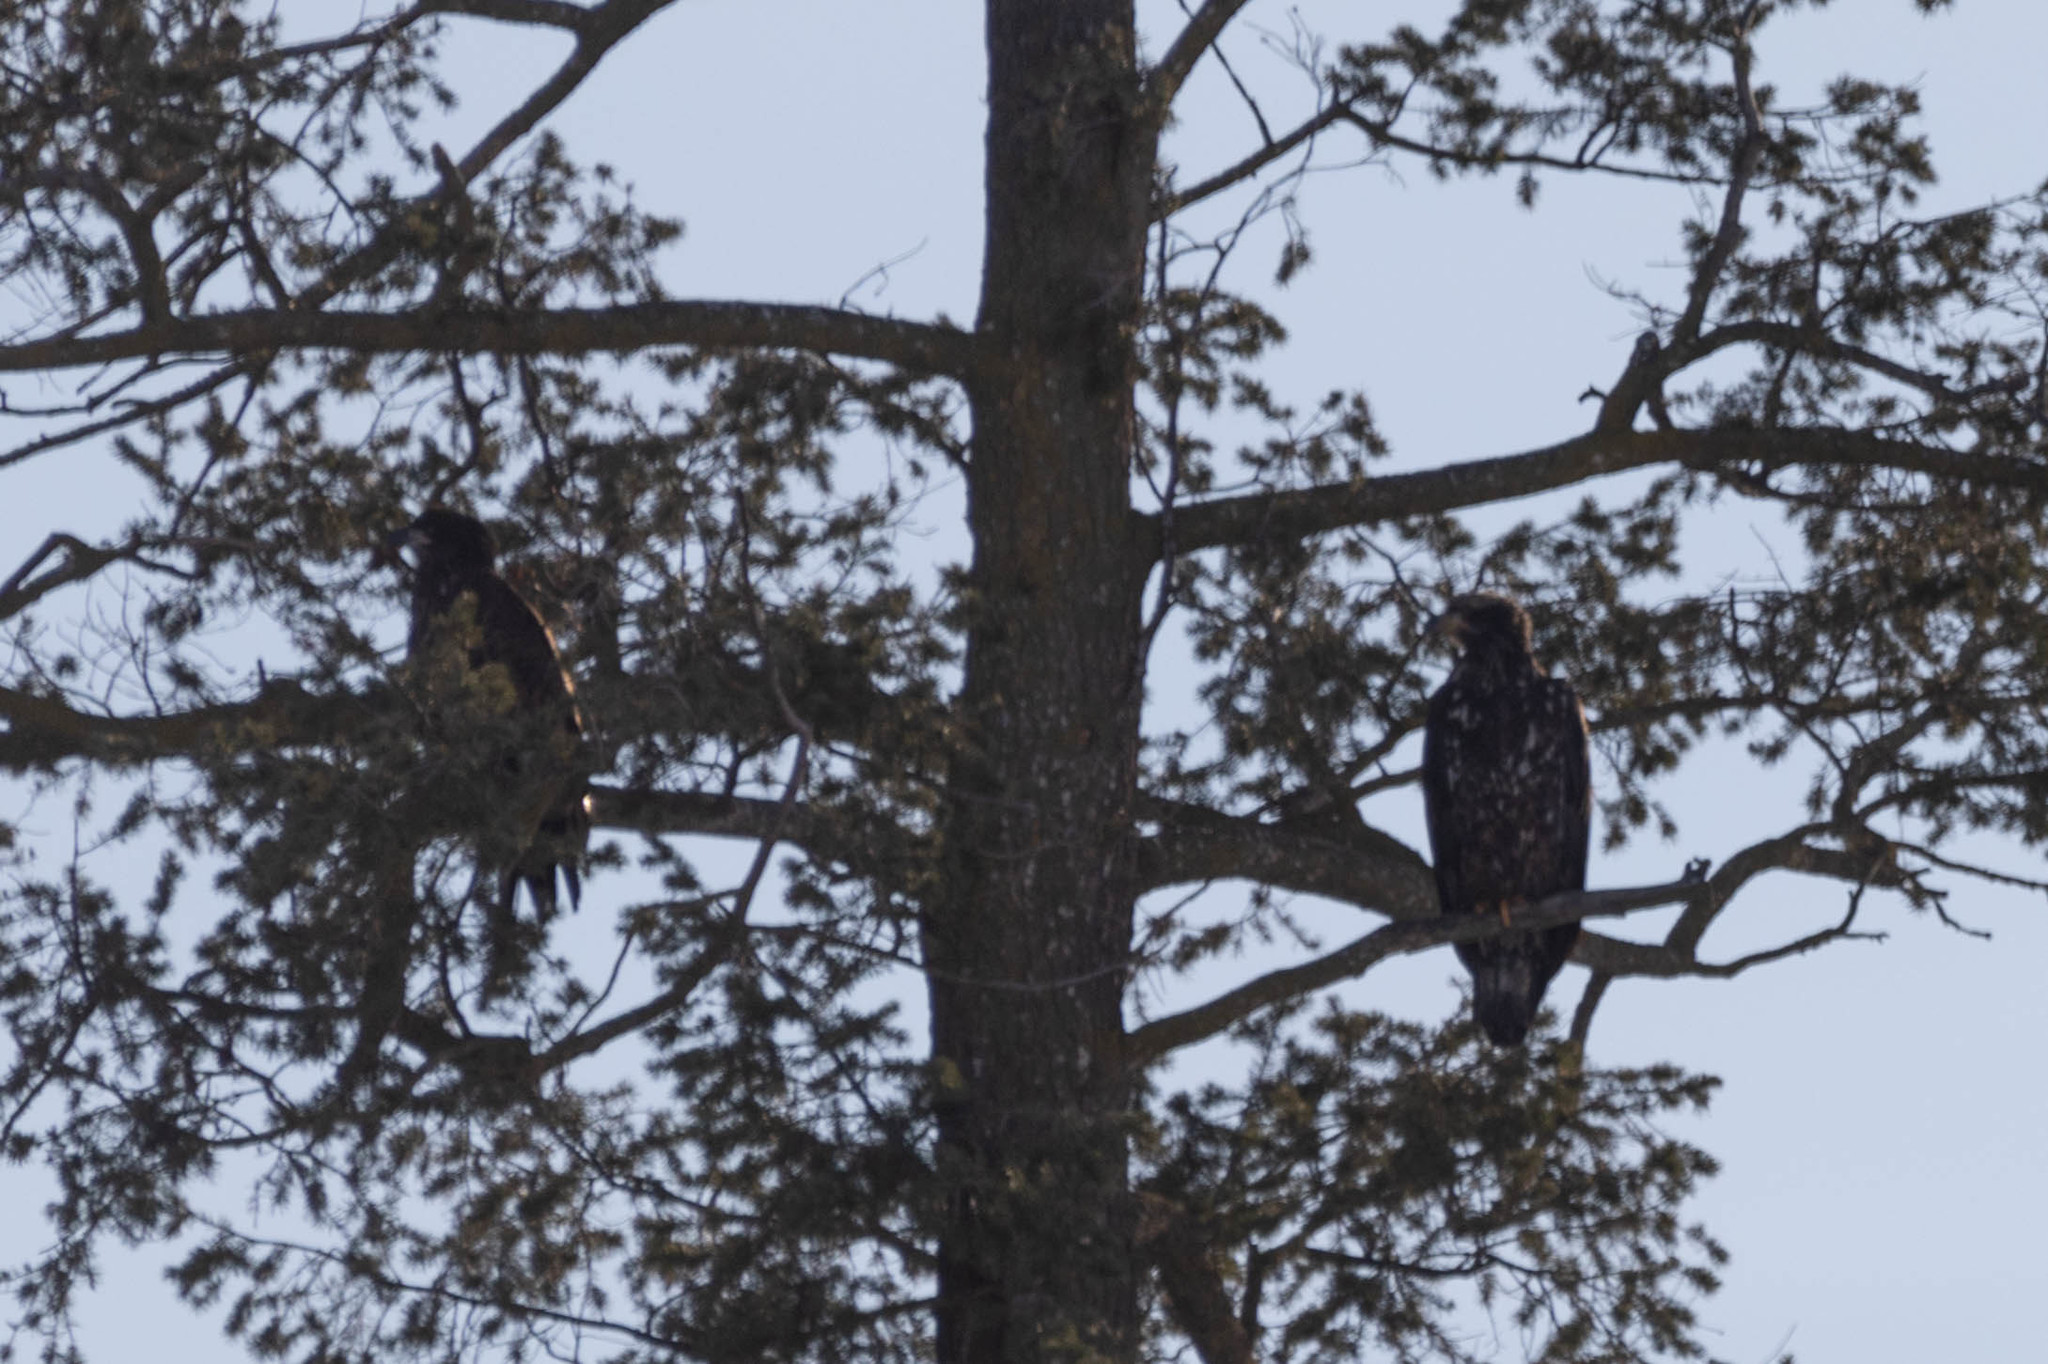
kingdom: Animalia
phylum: Chordata
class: Aves
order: Accipitriformes
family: Accipitridae
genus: Haliaeetus
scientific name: Haliaeetus leucocephalus
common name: Bald eagle
